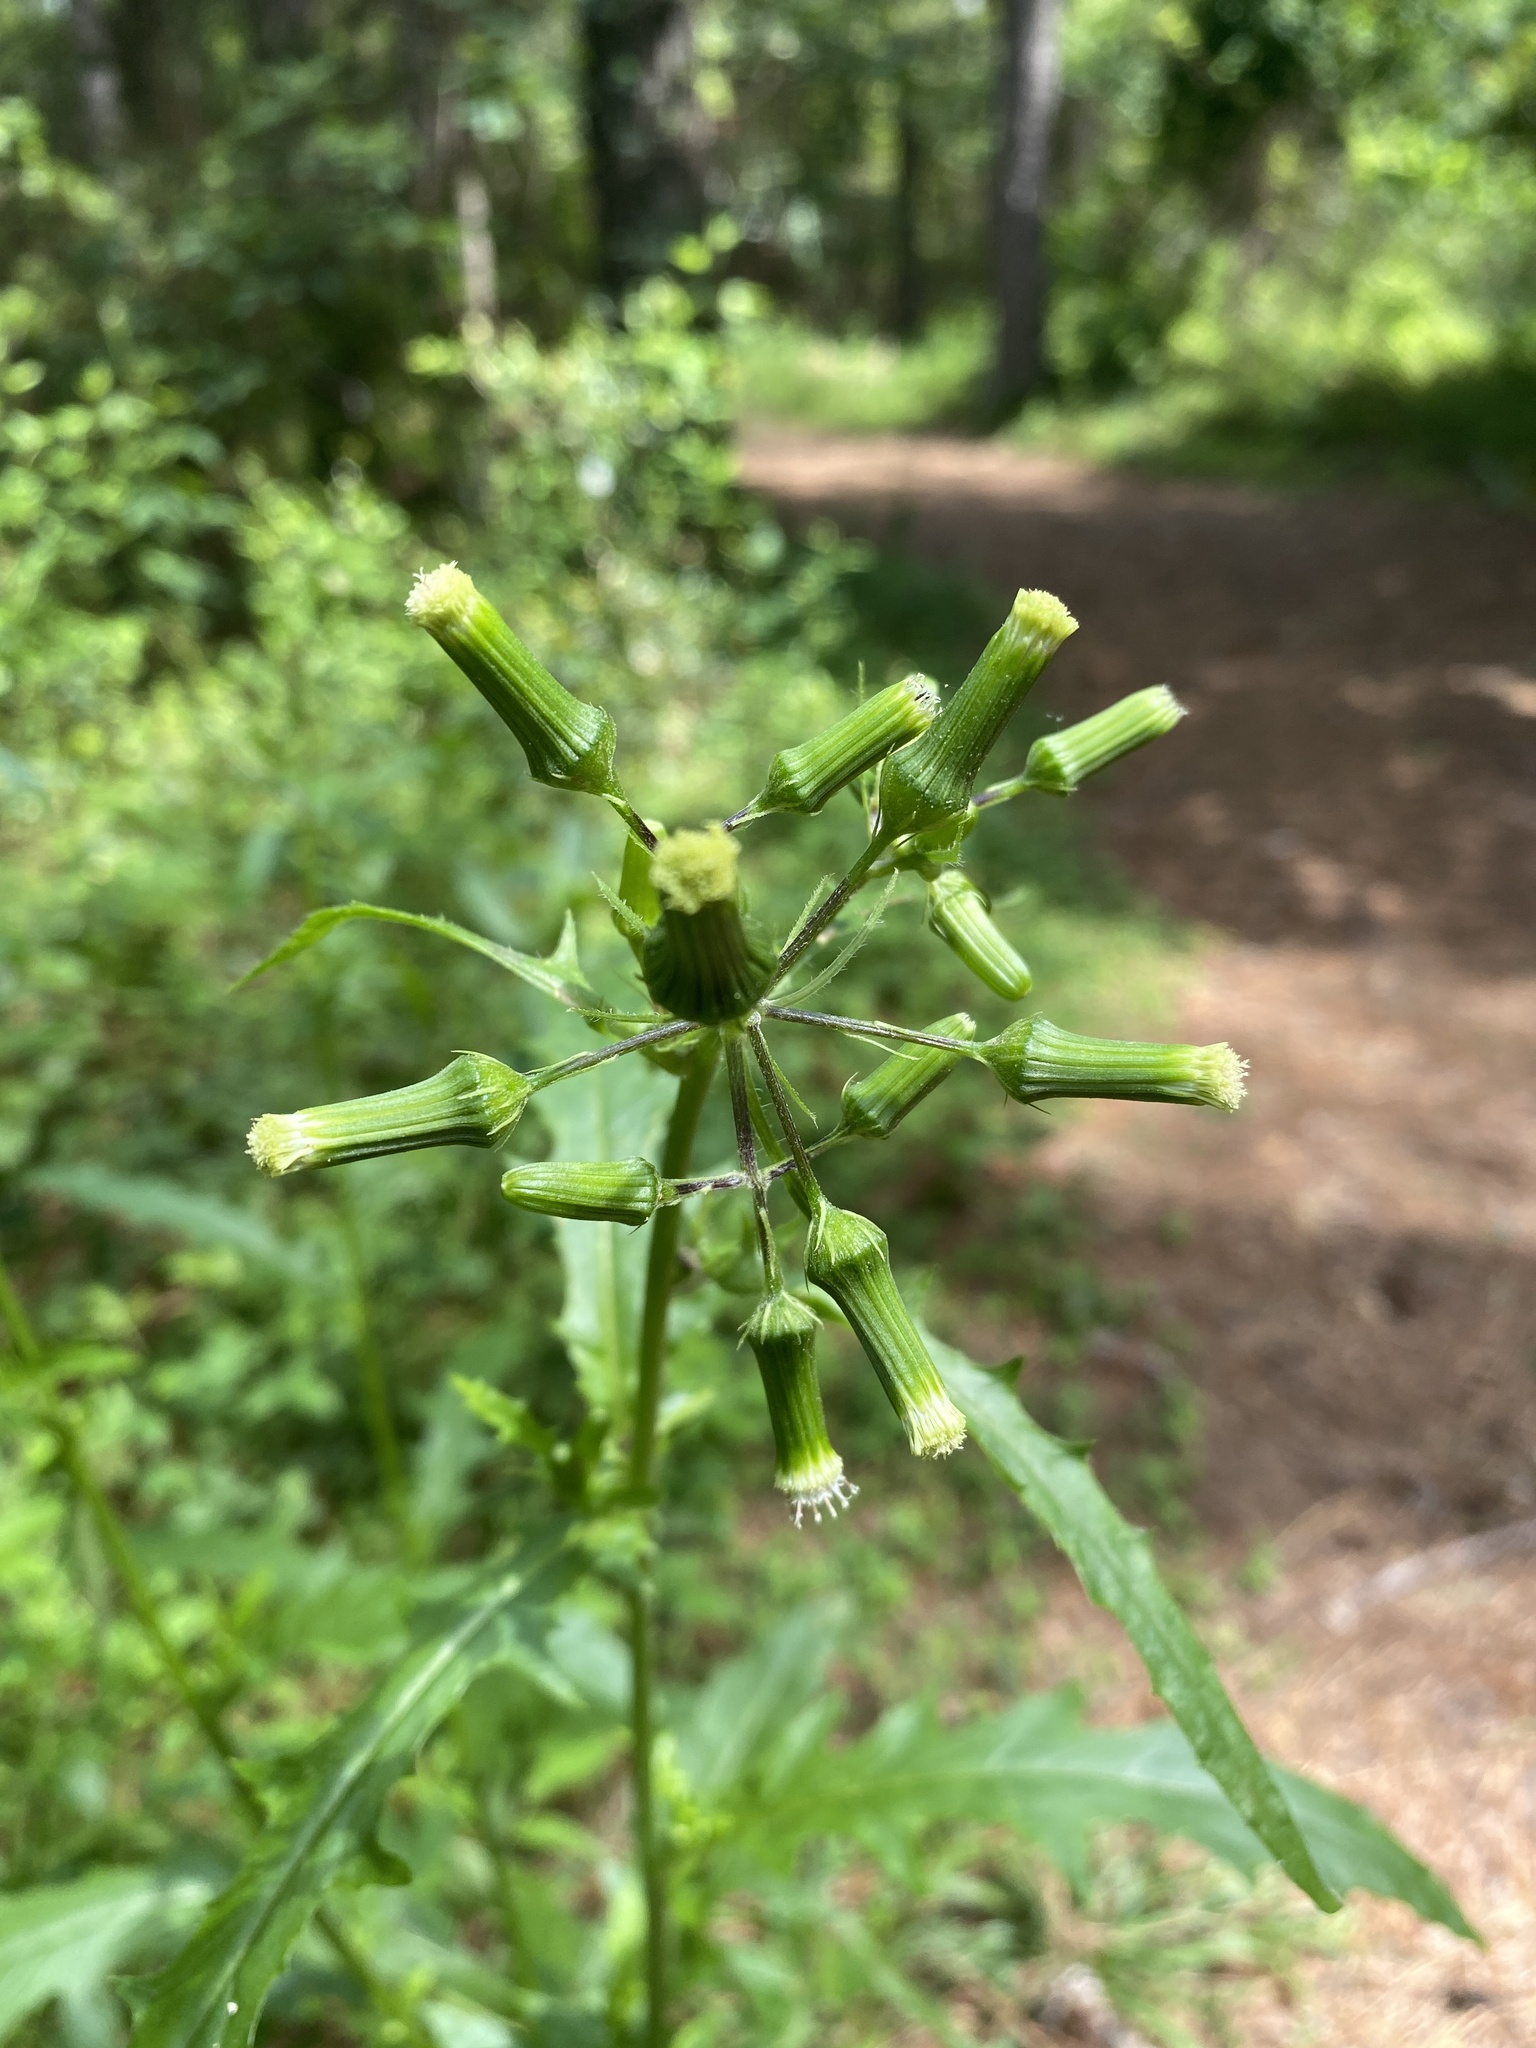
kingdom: Plantae
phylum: Tracheophyta
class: Magnoliopsida
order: Asterales
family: Asteraceae
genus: Erechtites
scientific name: Erechtites hieraciifolius
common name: American burnweed
